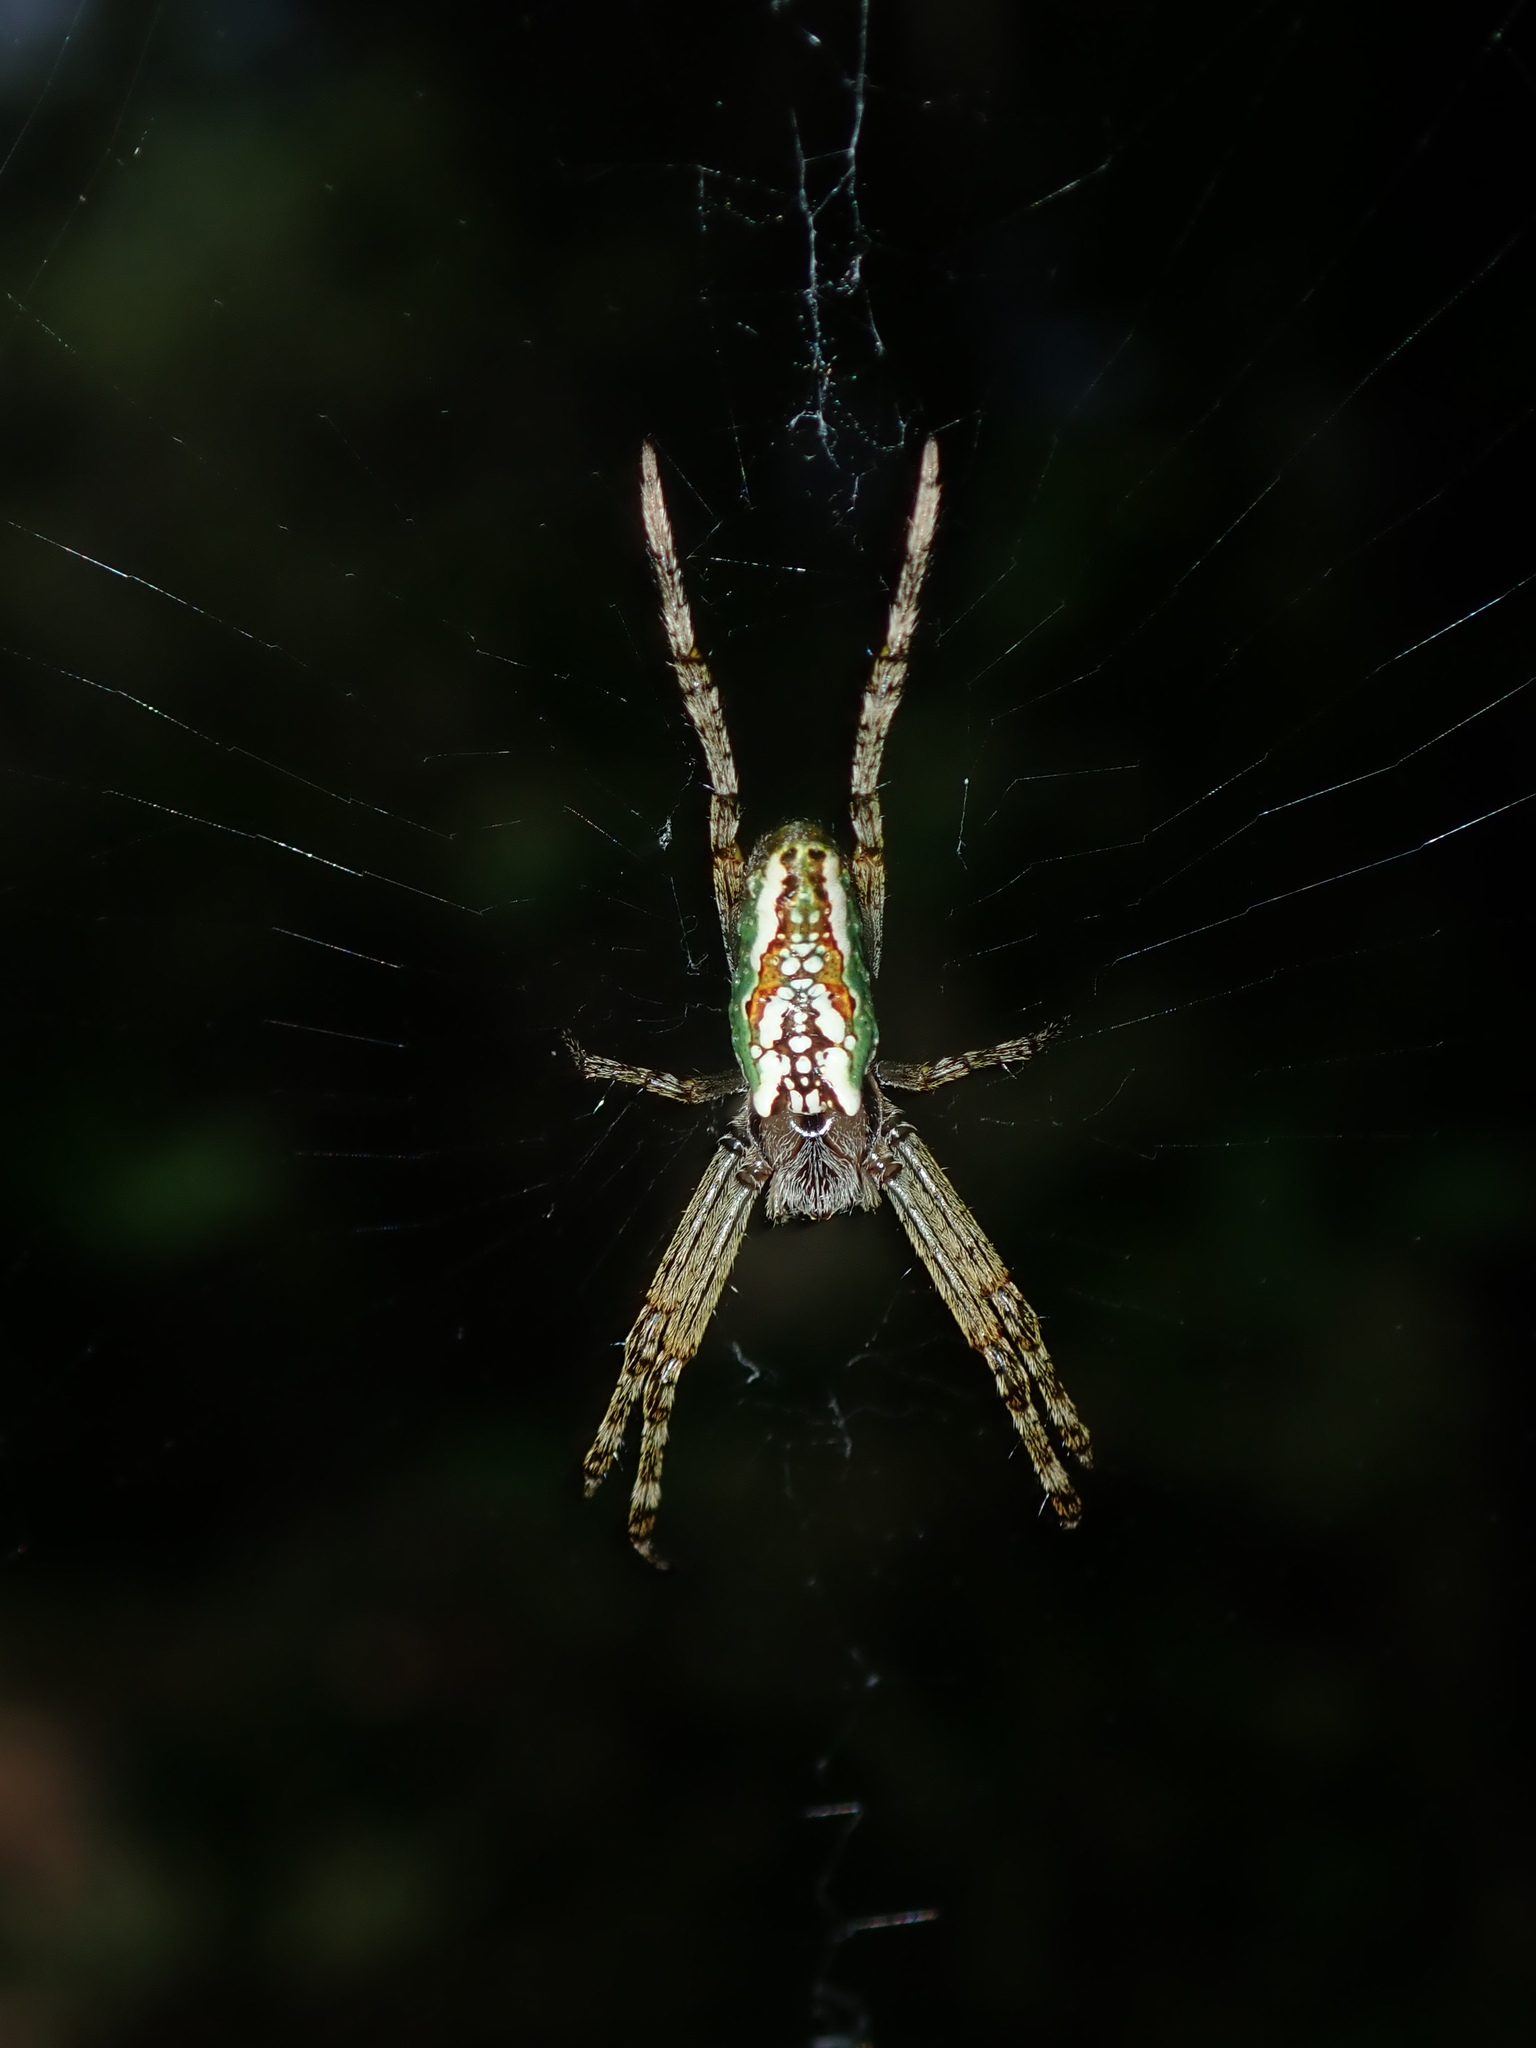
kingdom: Animalia
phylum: Arthropoda
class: Arachnida
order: Araneae
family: Araneidae
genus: Plebs
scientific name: Plebs bradleyi
